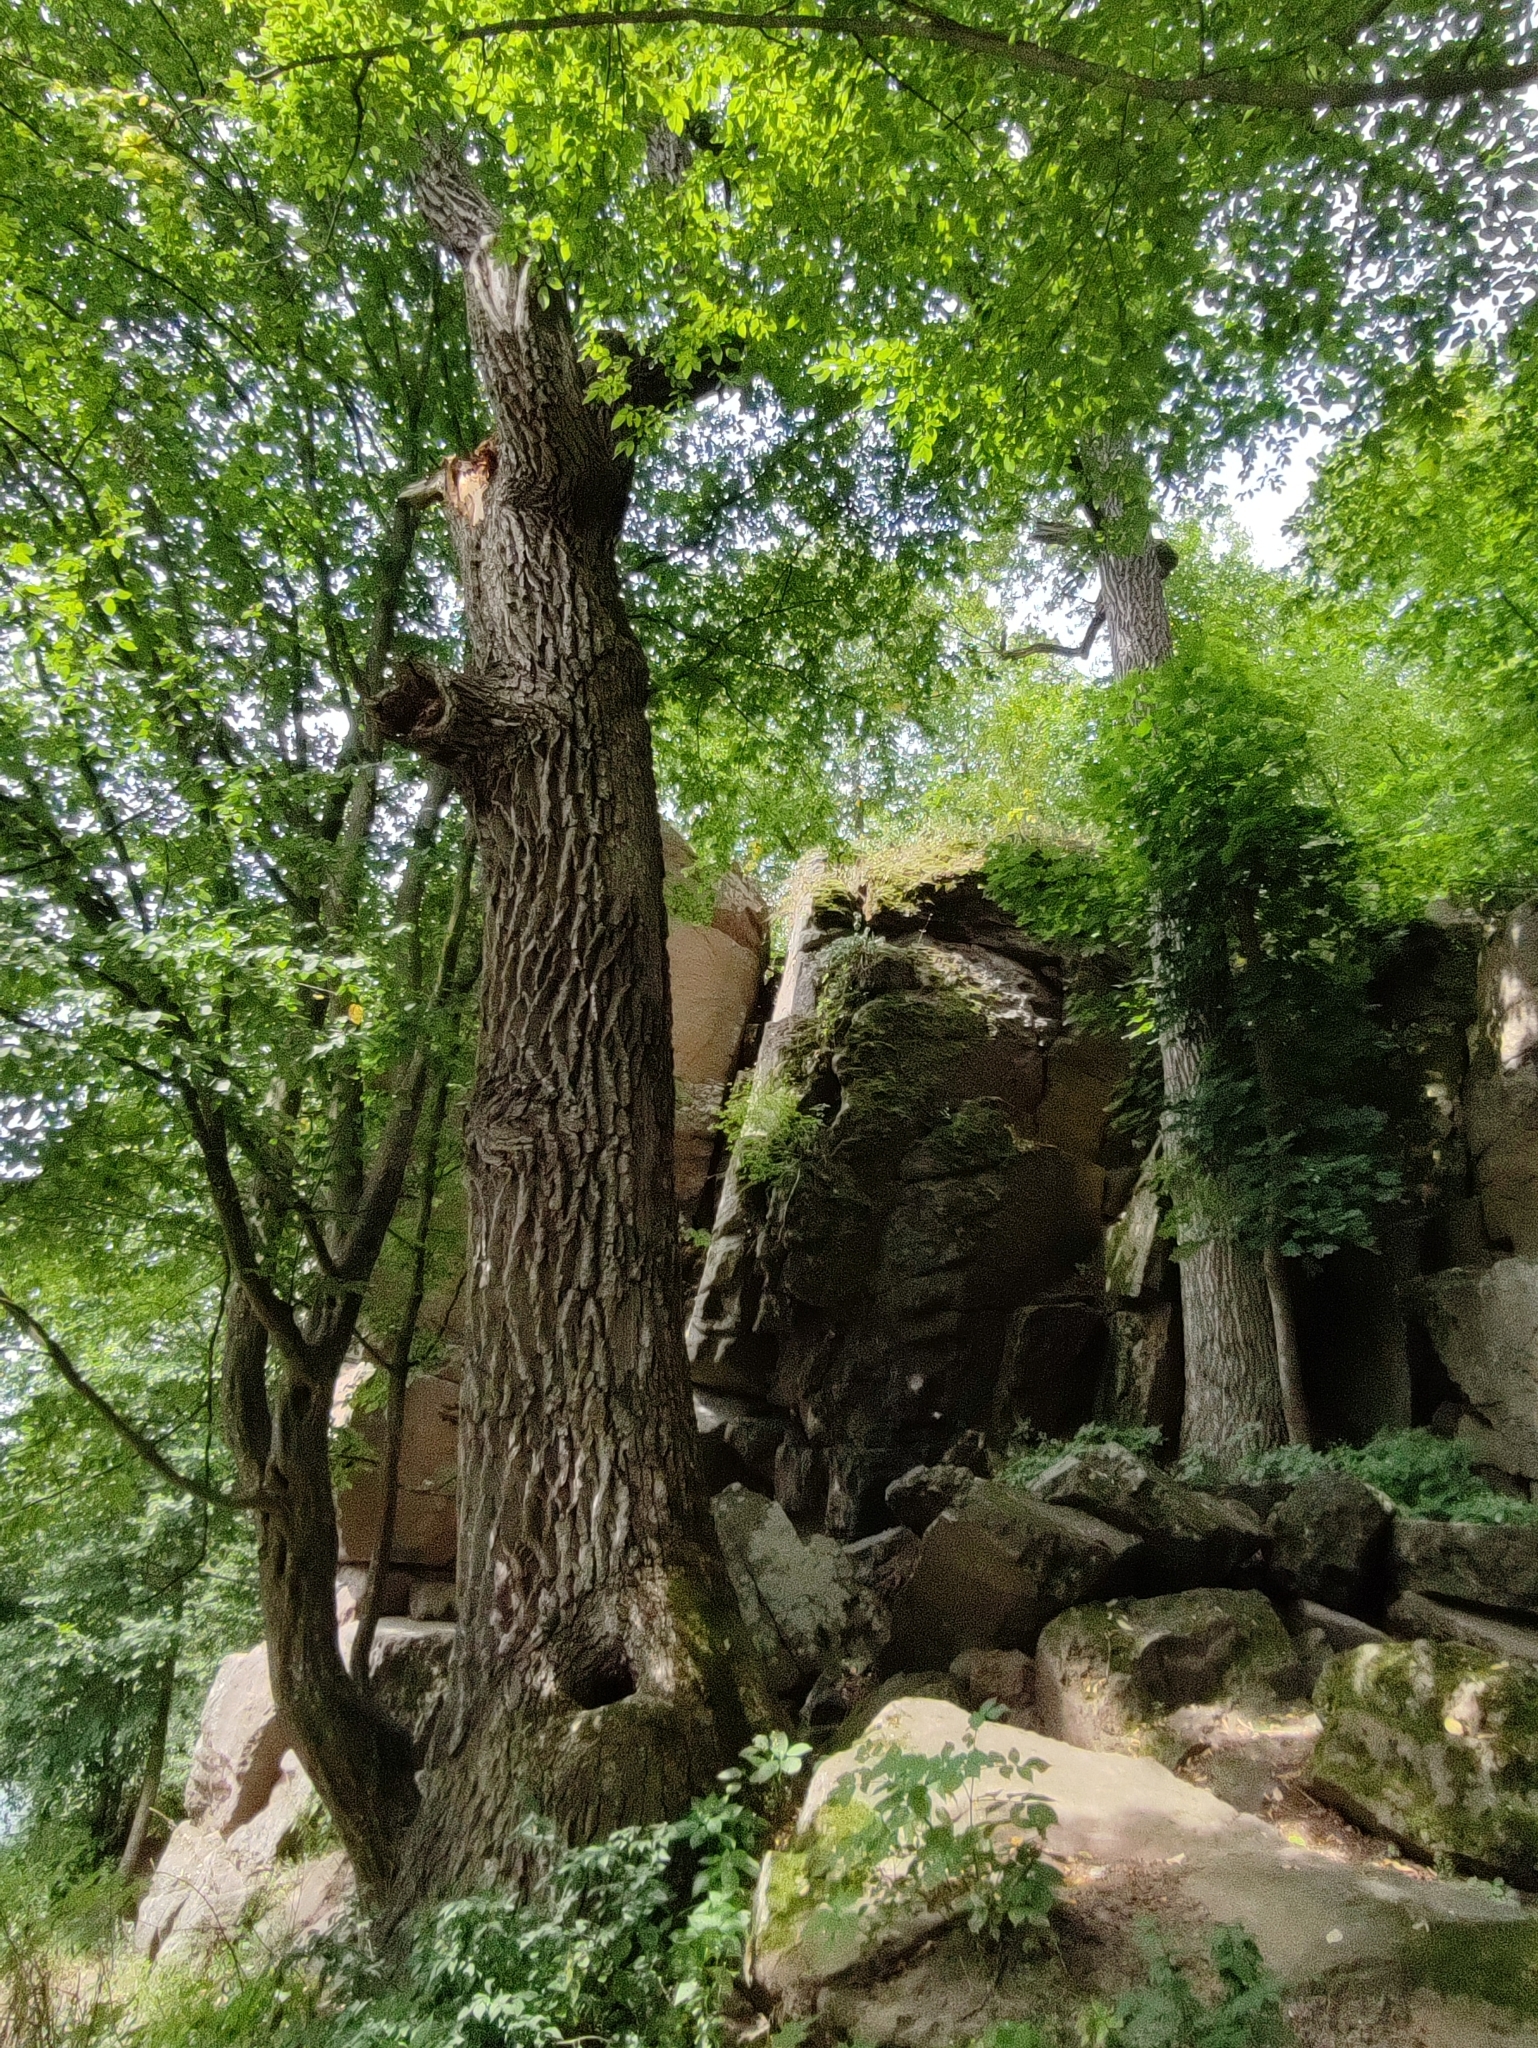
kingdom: Plantae
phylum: Tracheophyta
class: Magnoliopsida
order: Fagales
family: Fagaceae
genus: Quercus
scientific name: Quercus robur
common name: Pedunculate oak
